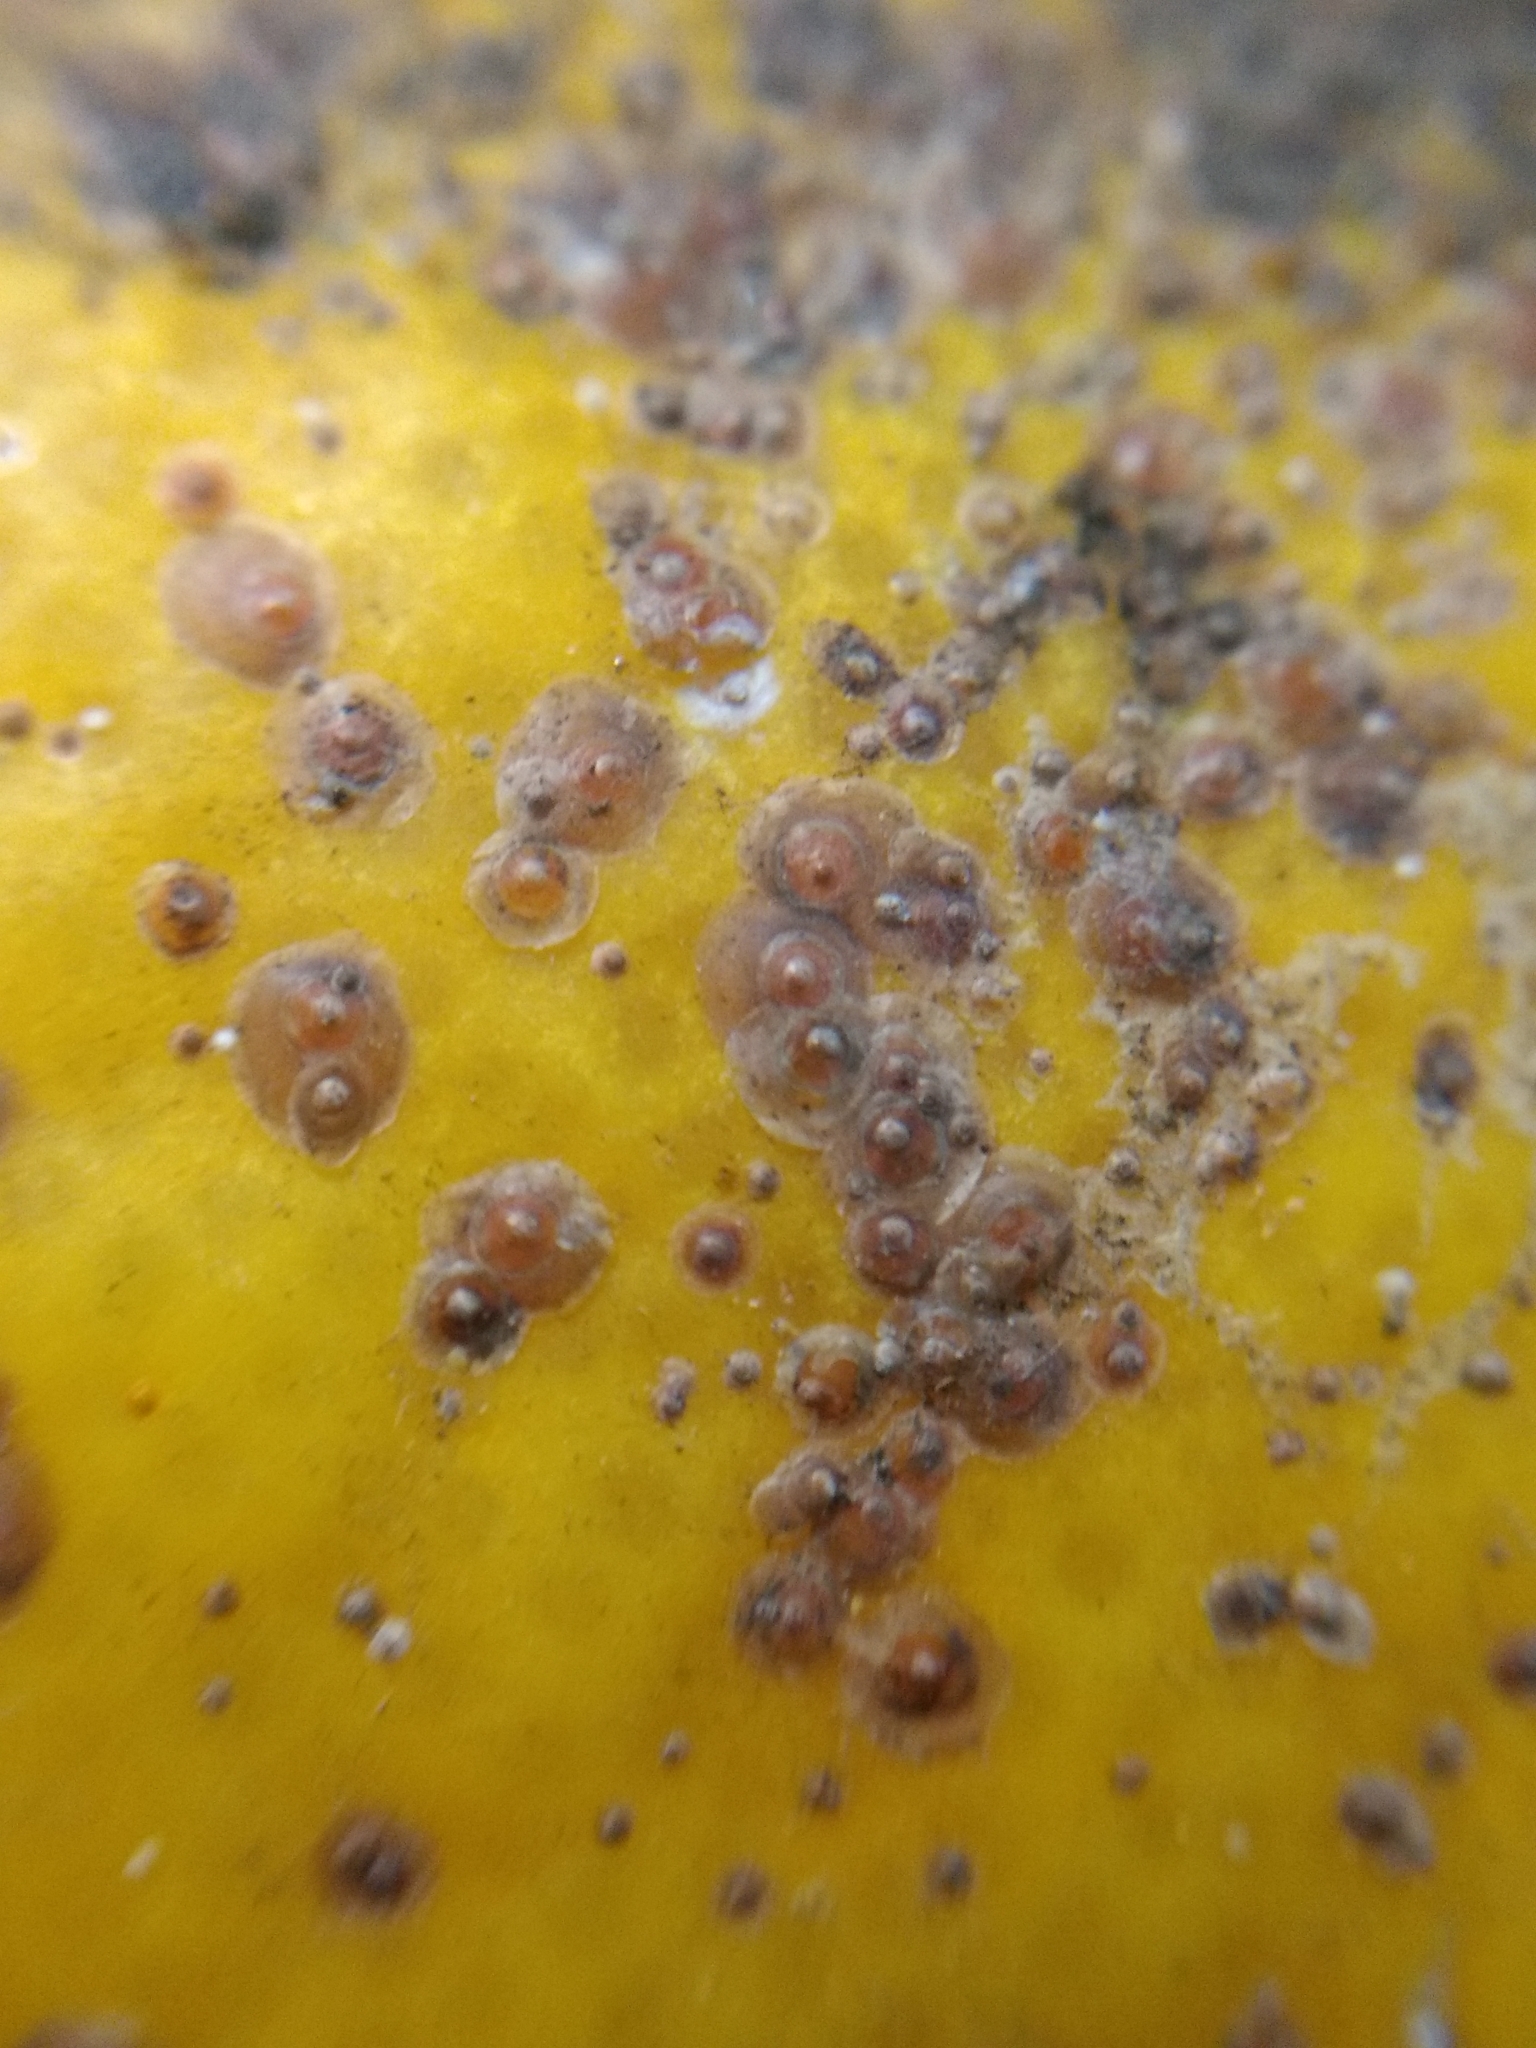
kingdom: Animalia
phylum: Arthropoda
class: Insecta
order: Hemiptera
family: Diaspididae
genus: Aonidiella
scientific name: Aonidiella aurantii
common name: California red scale
